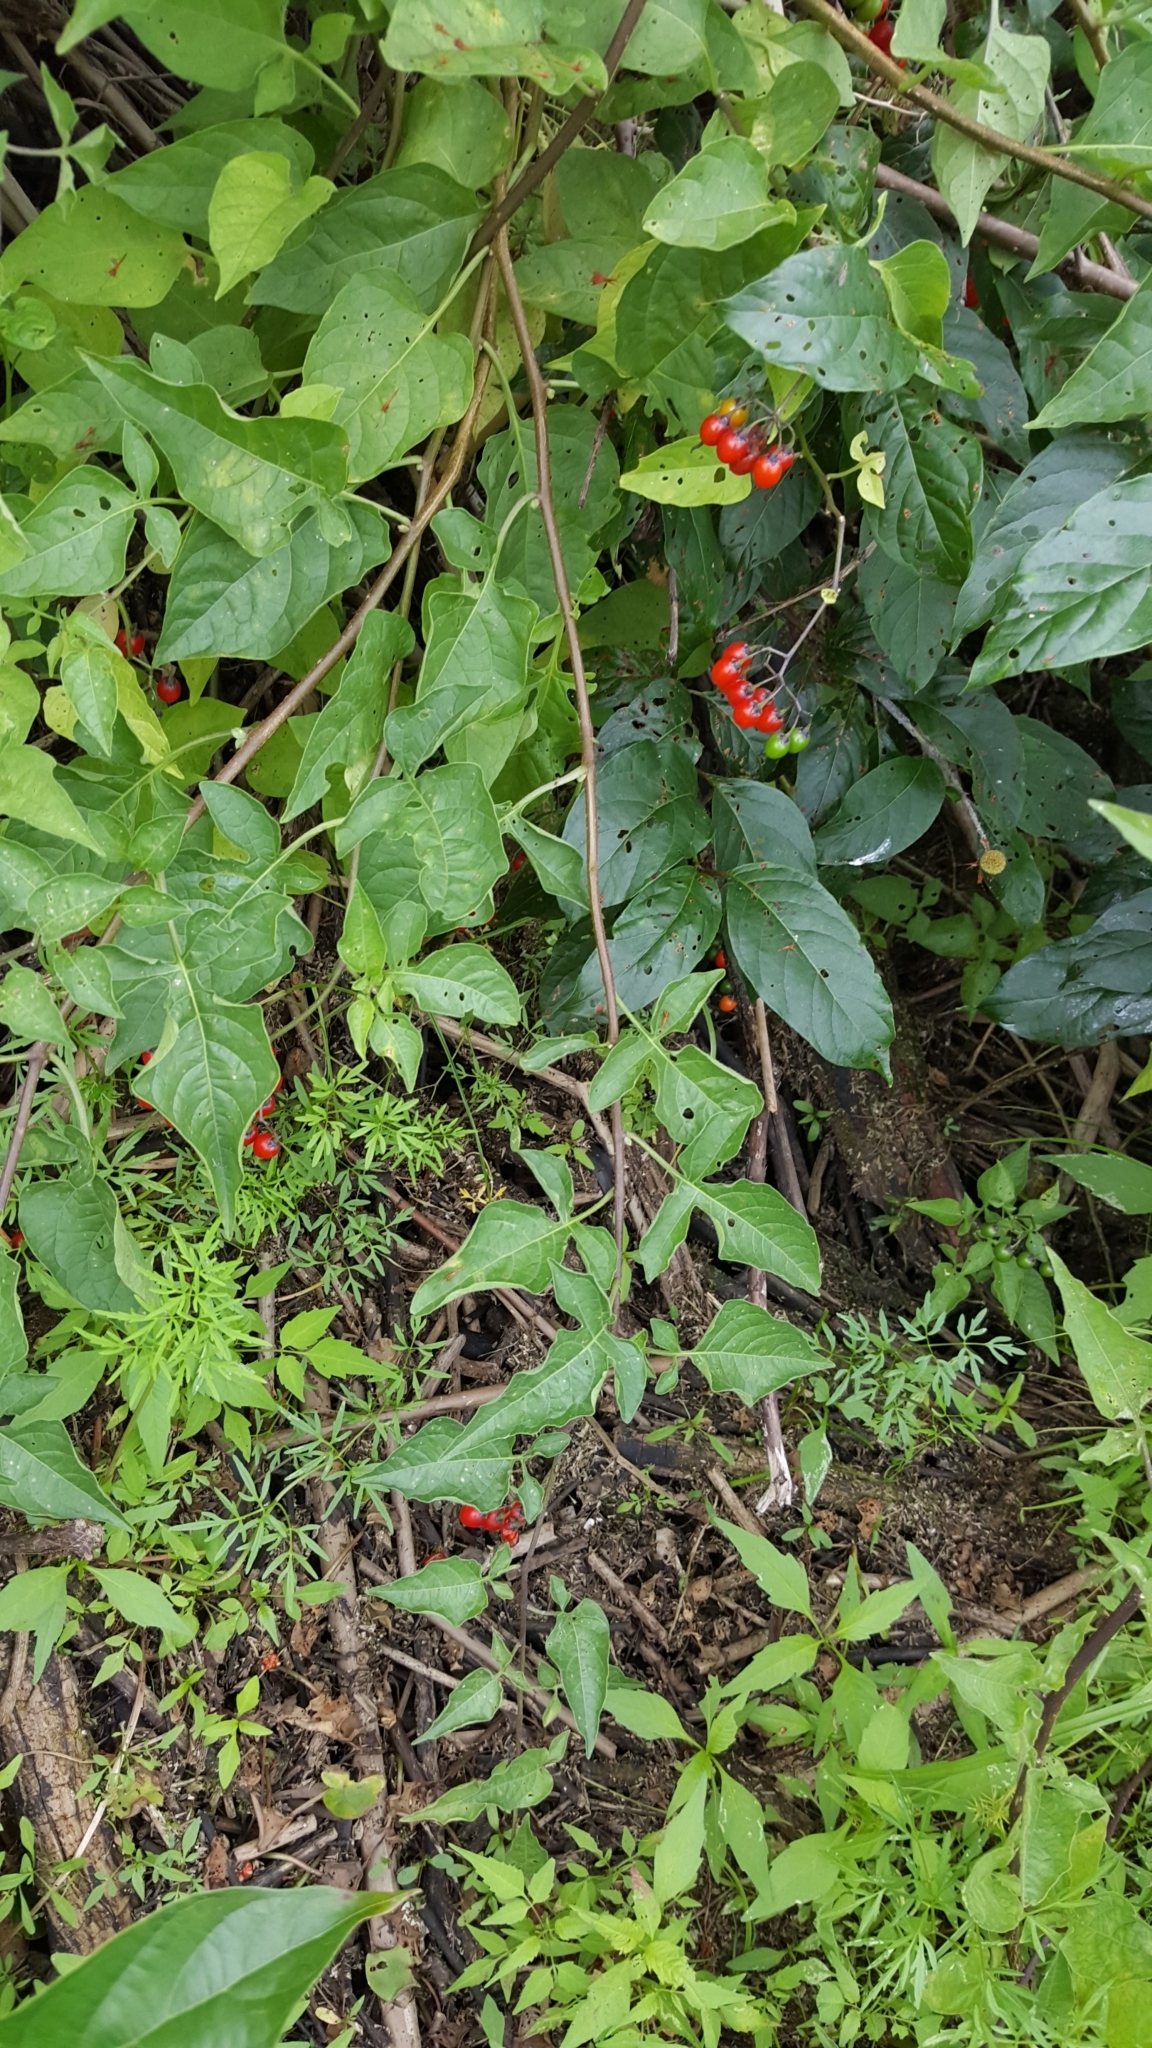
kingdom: Plantae
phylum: Tracheophyta
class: Magnoliopsida
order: Solanales
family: Solanaceae
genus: Solanum
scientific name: Solanum dulcamara
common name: Climbing nightshade
